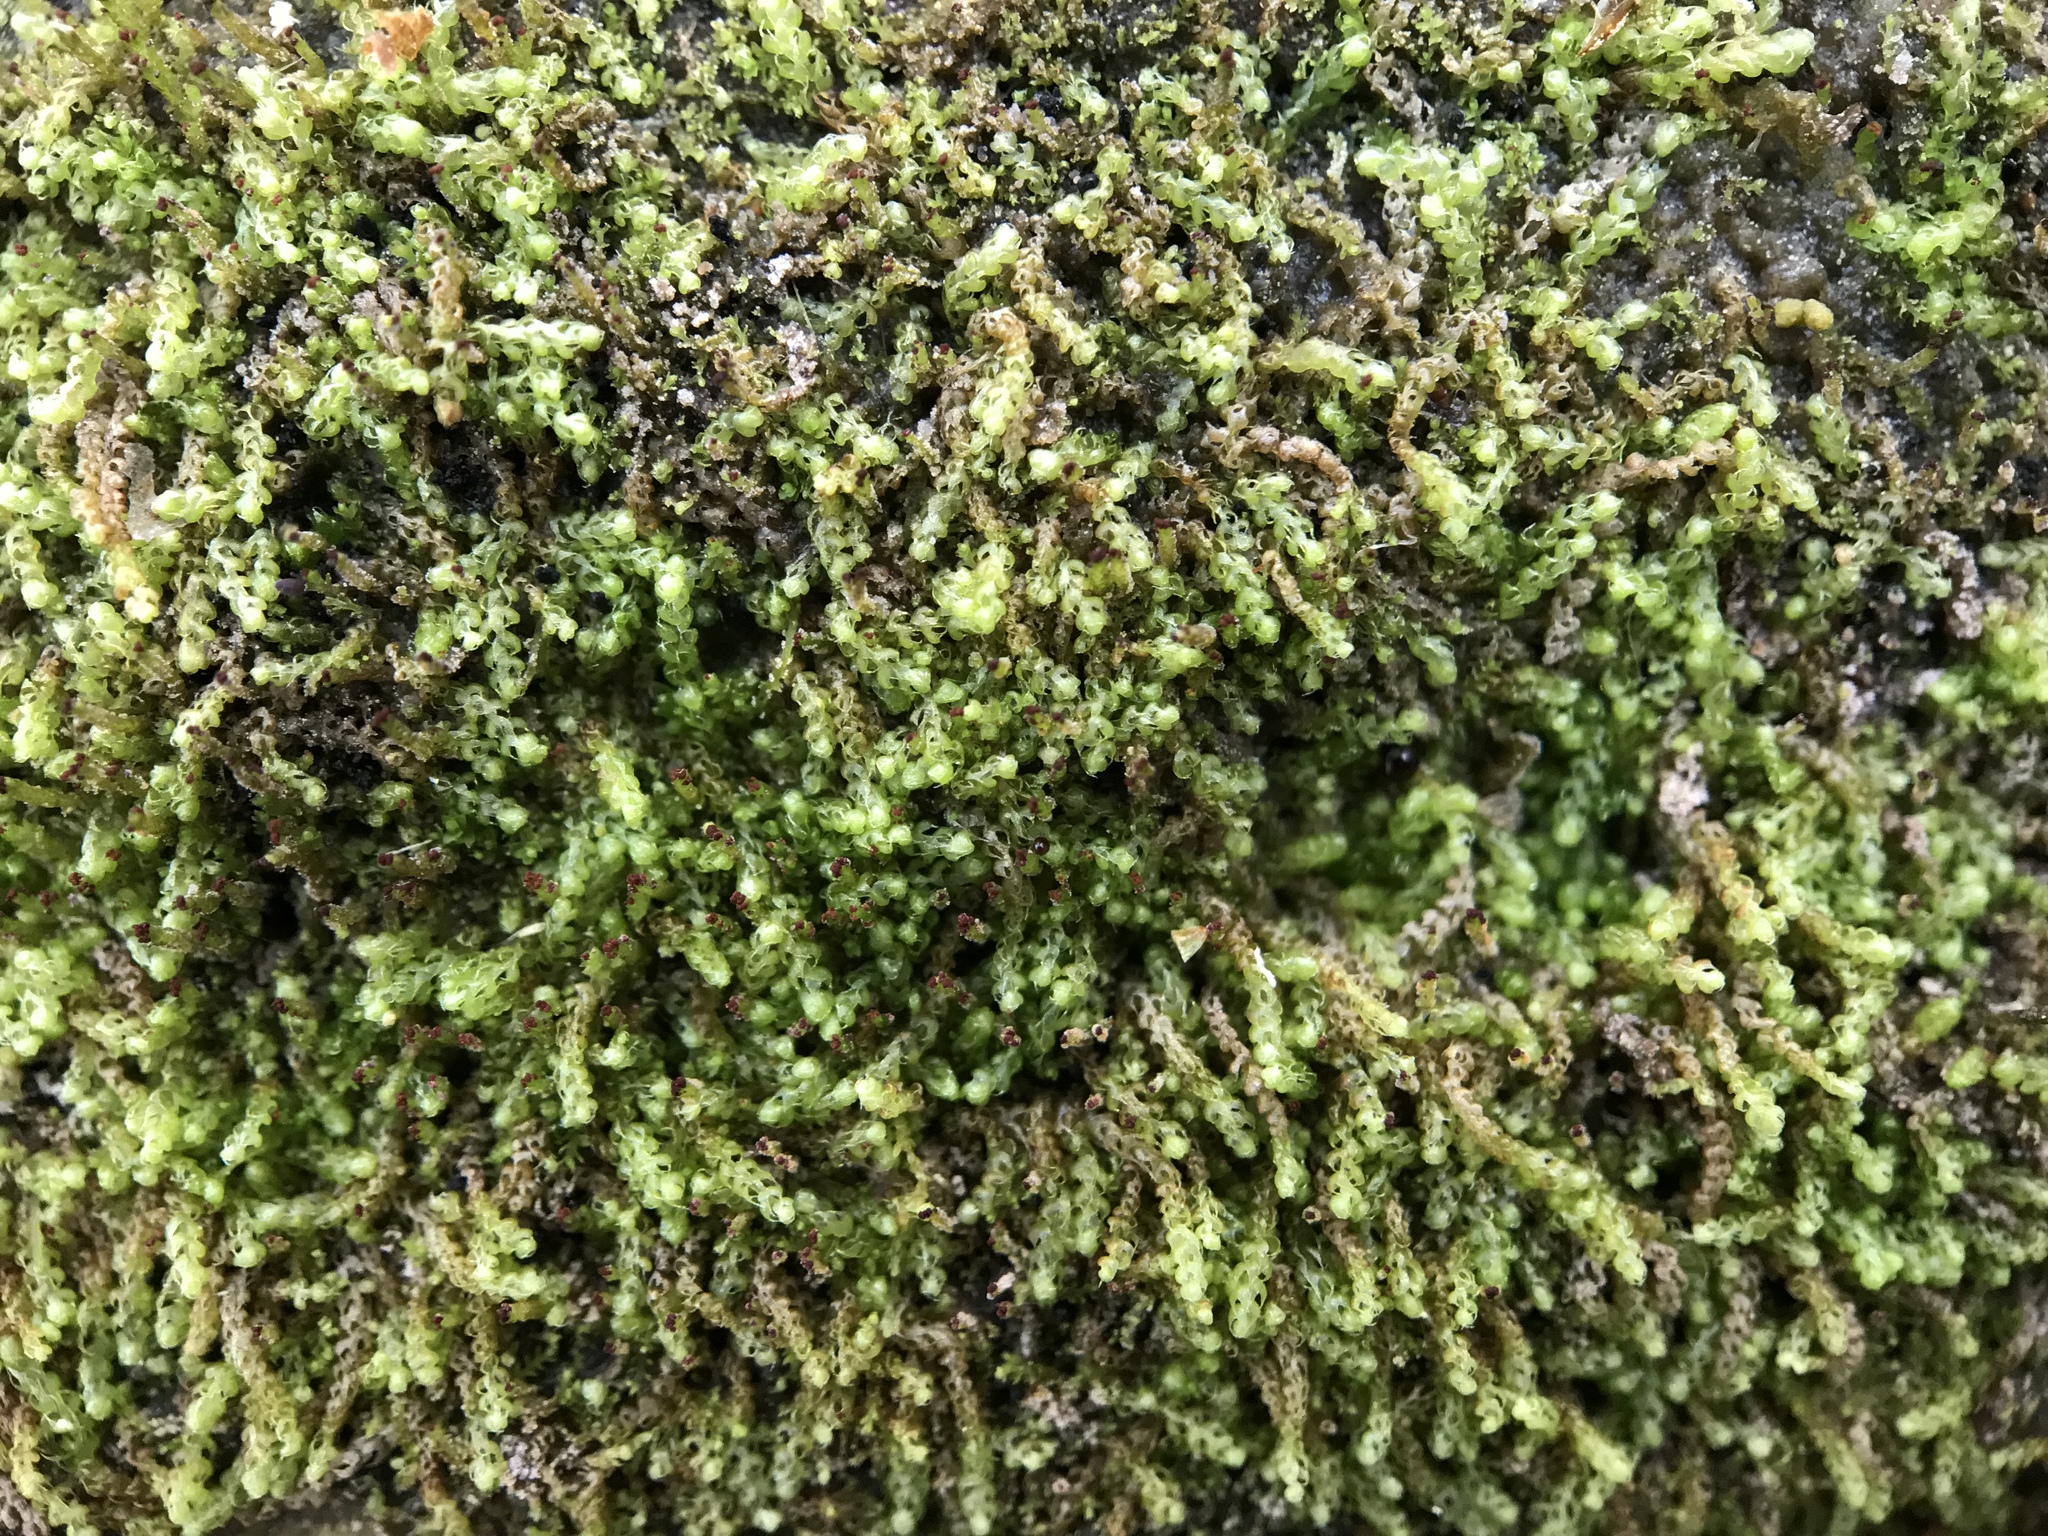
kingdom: Plantae
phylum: Marchantiophyta
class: Jungermanniopsida
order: Jungermanniales
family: Anastrophyllaceae
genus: Crossocalyx
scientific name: Crossocalyx hellerianus
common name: Heller's notchwort
